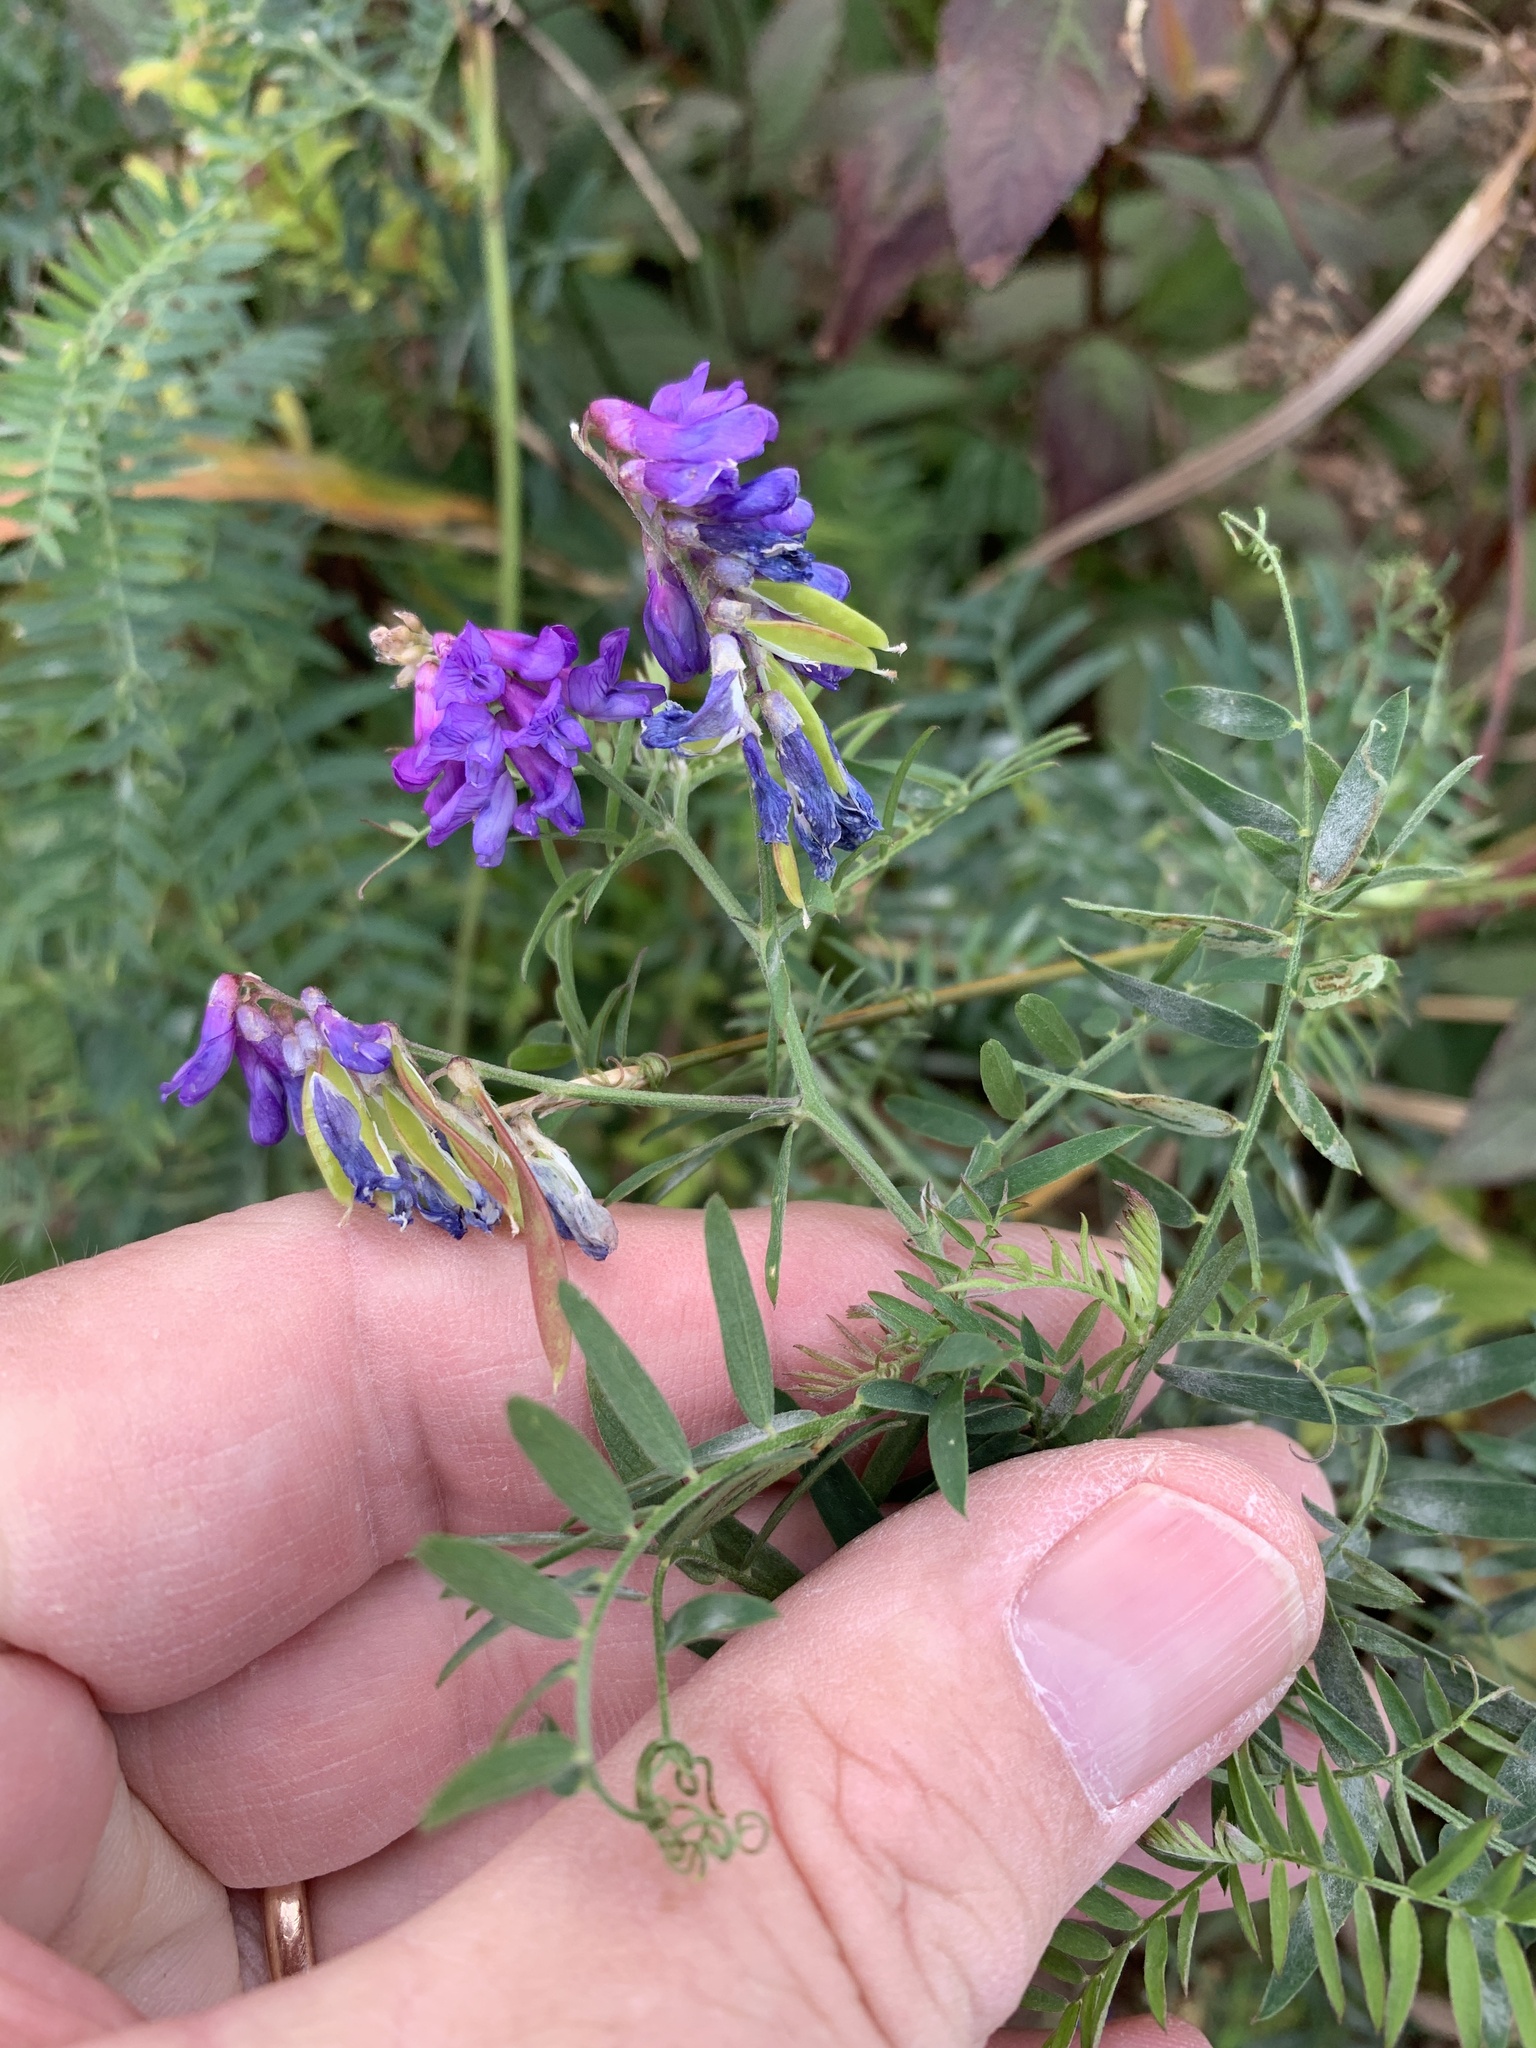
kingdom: Plantae
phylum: Tracheophyta
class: Magnoliopsida
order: Fabales
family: Fabaceae
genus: Vicia
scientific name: Vicia cracca
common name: Bird vetch
